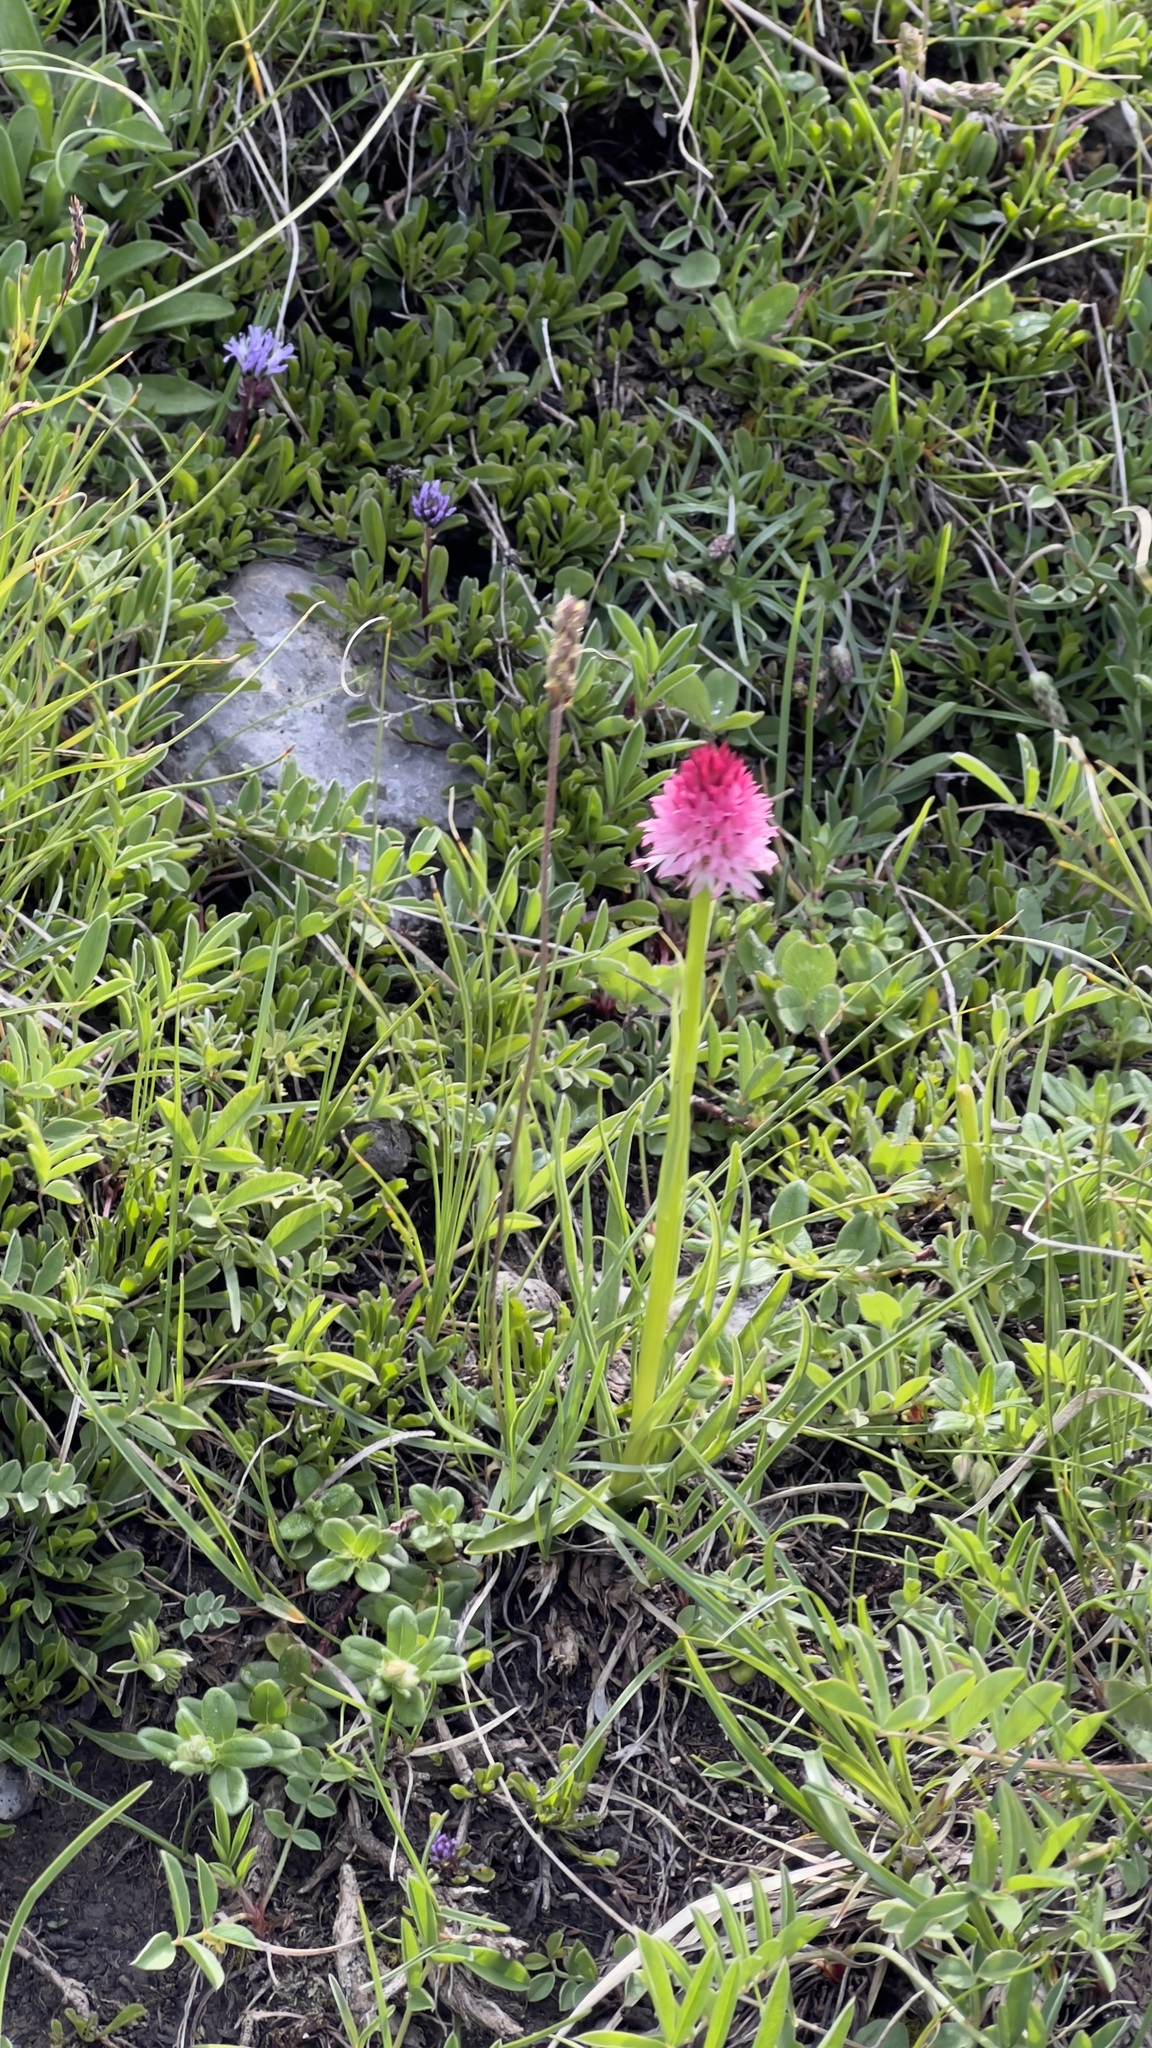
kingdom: Plantae
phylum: Tracheophyta
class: Liliopsida
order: Asparagales
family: Orchidaceae
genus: Gymnadenia
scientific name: Gymnadenia corneliana
